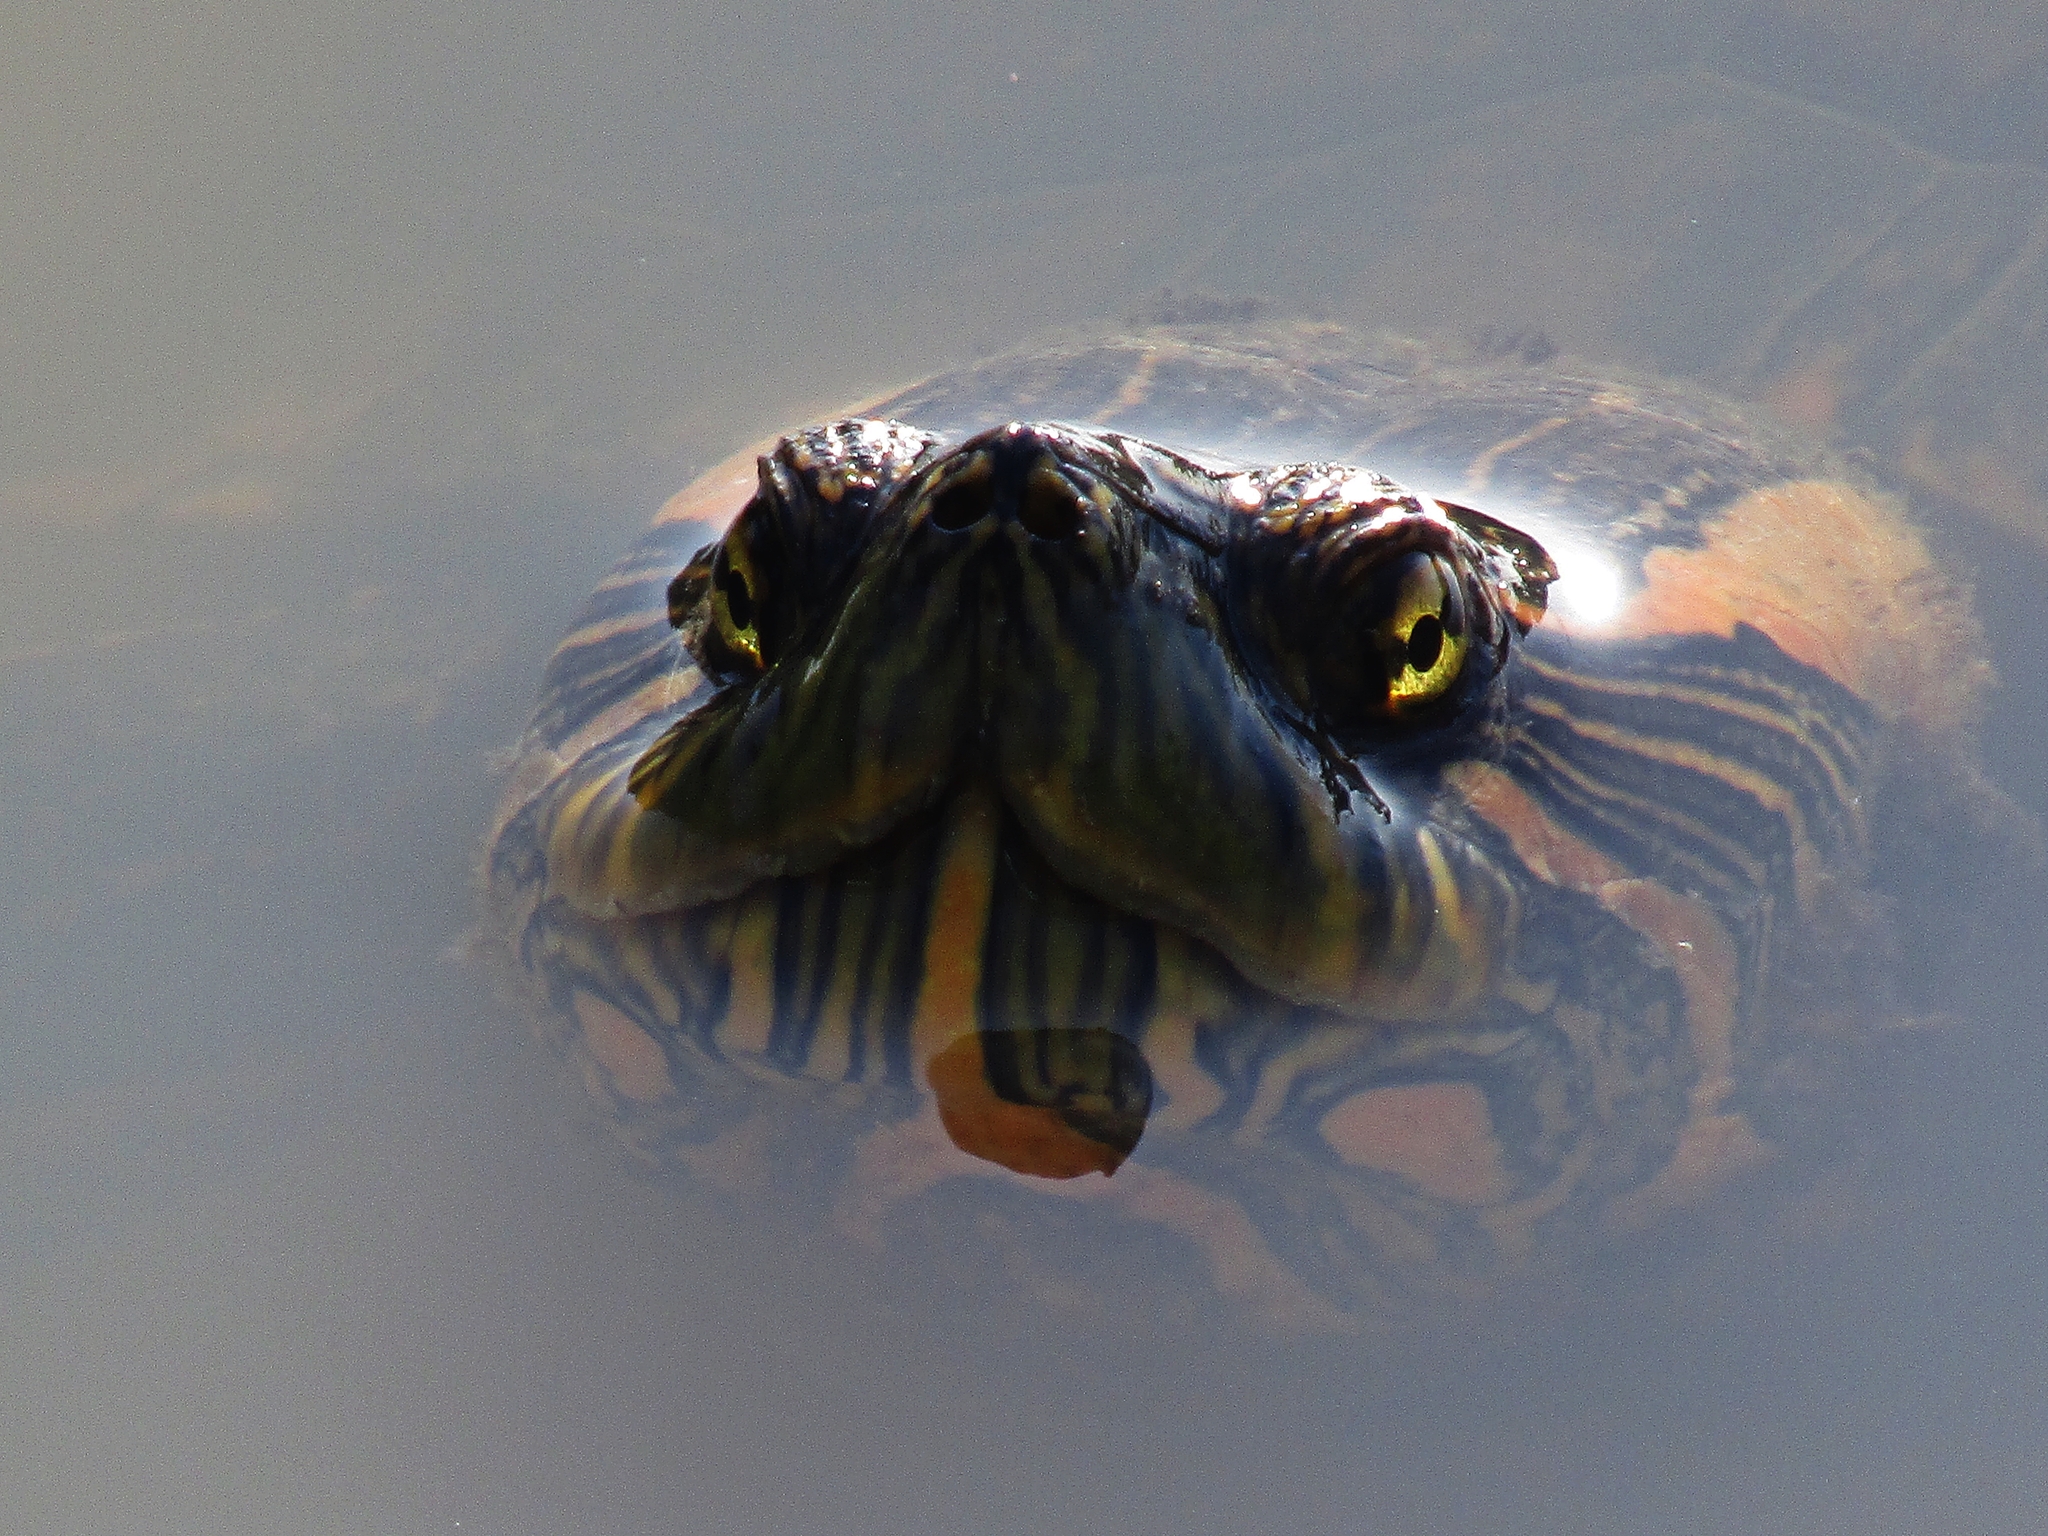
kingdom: Animalia
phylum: Chordata
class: Testudines
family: Emydidae
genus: Trachemys
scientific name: Trachemys dorbigni
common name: Black-bellied slider
